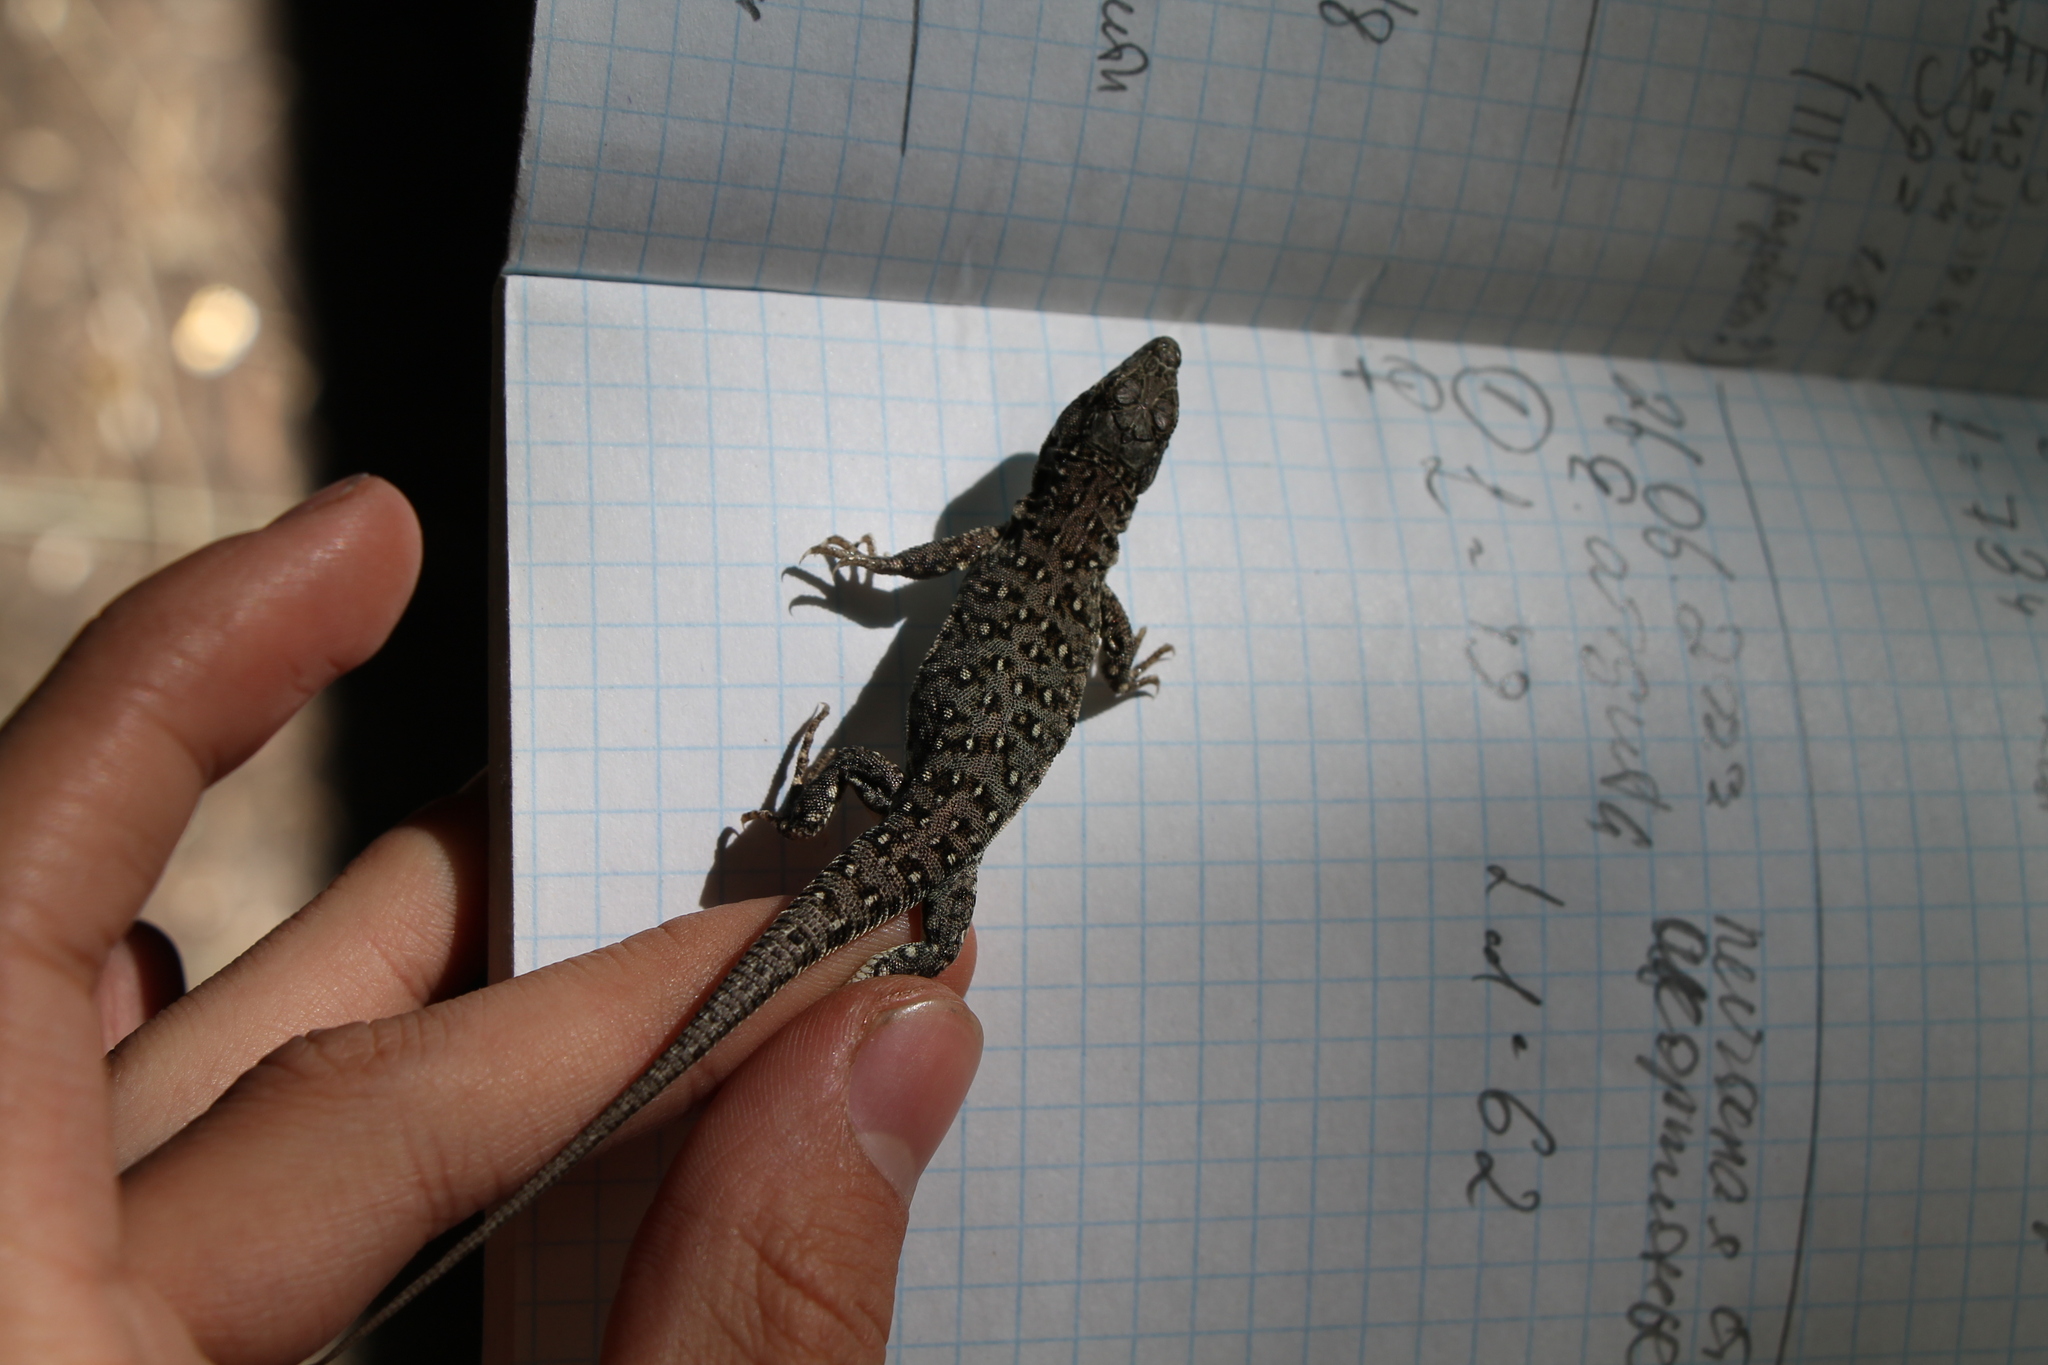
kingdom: Animalia
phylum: Chordata
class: Squamata
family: Lacertidae
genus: Eremias
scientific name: Eremias arguta
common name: Racerunner
